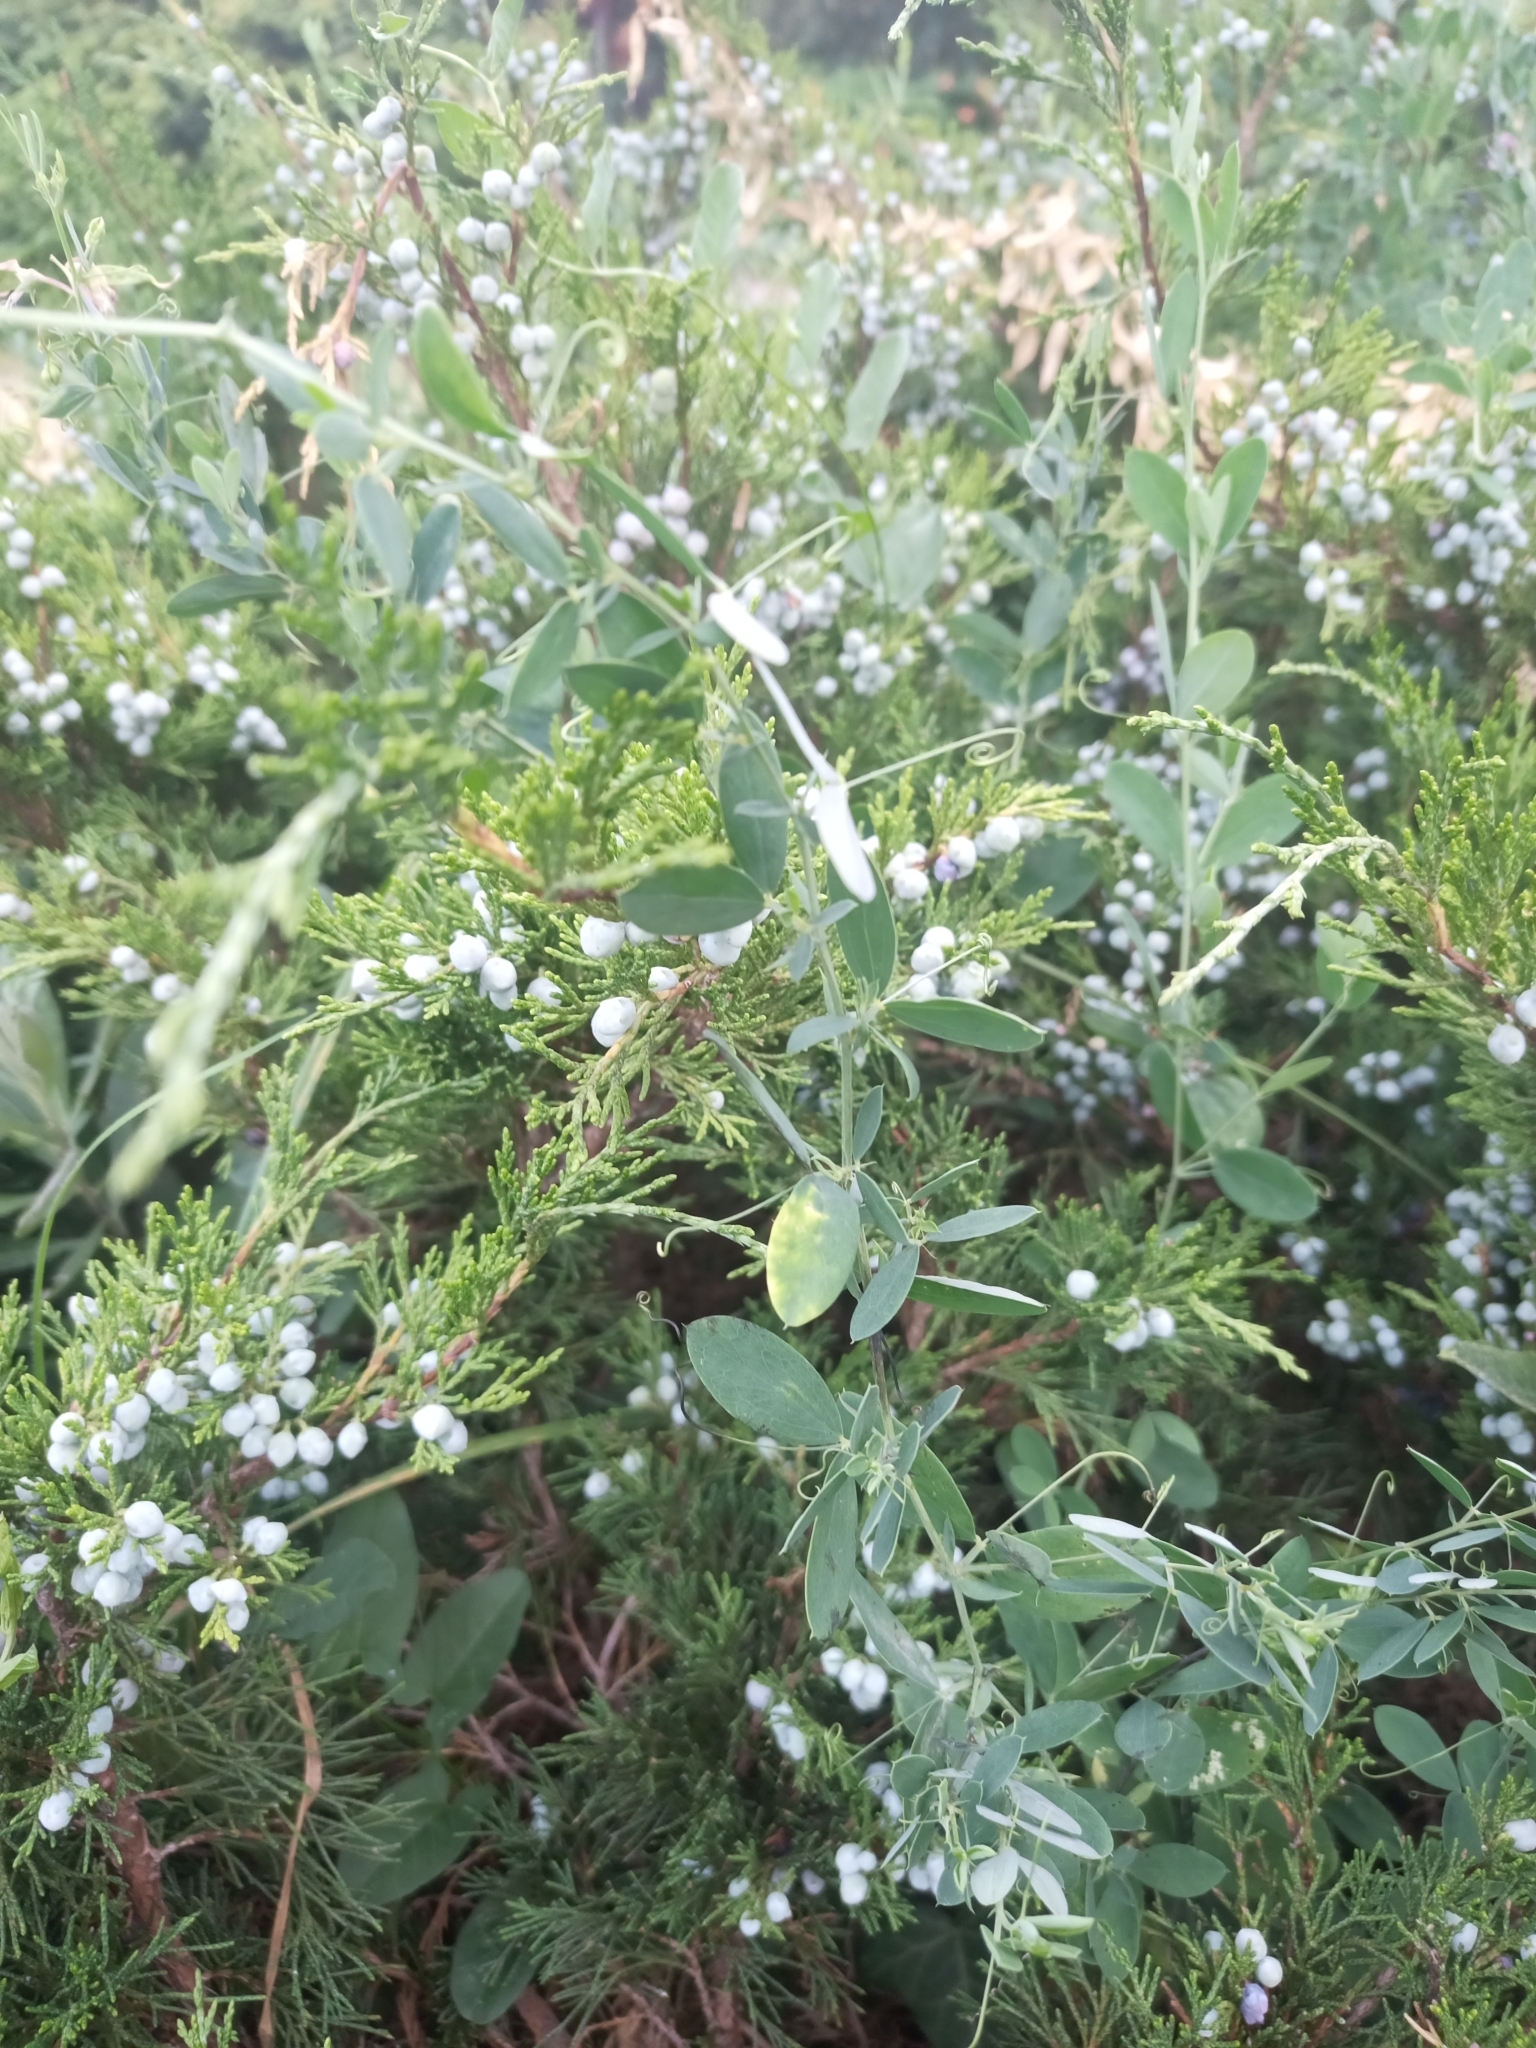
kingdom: Plantae
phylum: Tracheophyta
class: Magnoliopsida
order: Fabales
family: Fabaceae
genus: Lathyrus
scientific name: Lathyrus tuberosus
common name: Tuberous pea
